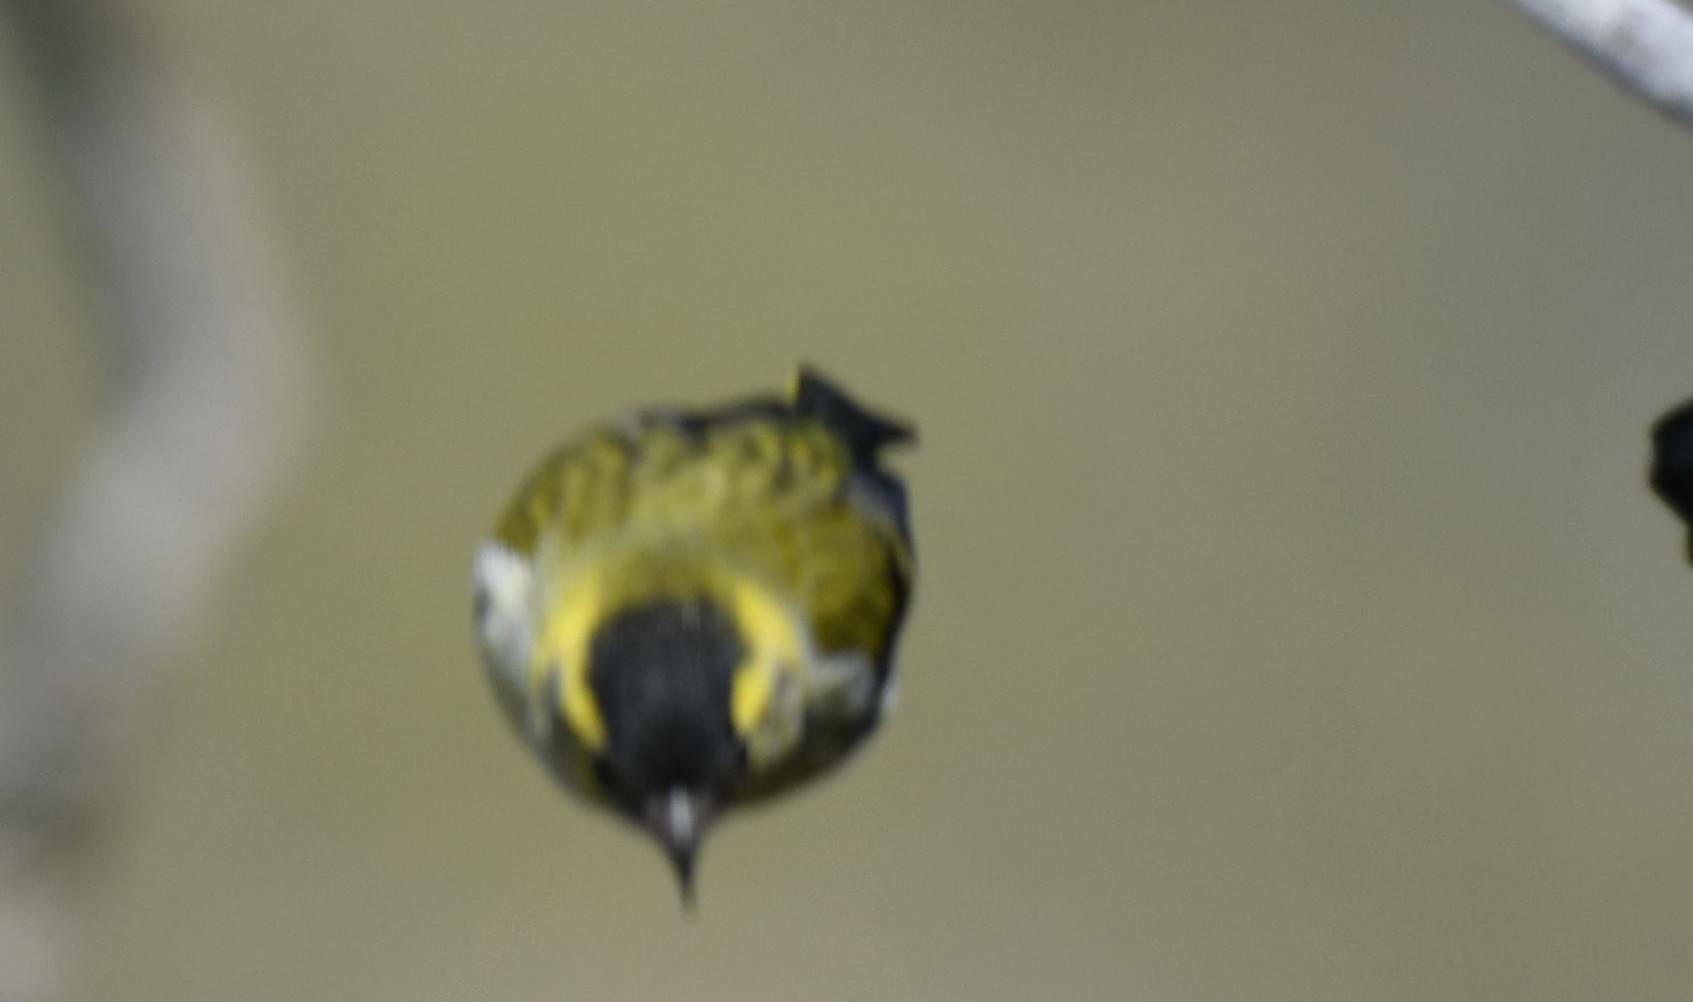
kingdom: Animalia
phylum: Chordata
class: Aves
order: Passeriformes
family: Fringillidae
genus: Spinus
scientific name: Spinus spinus
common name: Eurasian siskin
